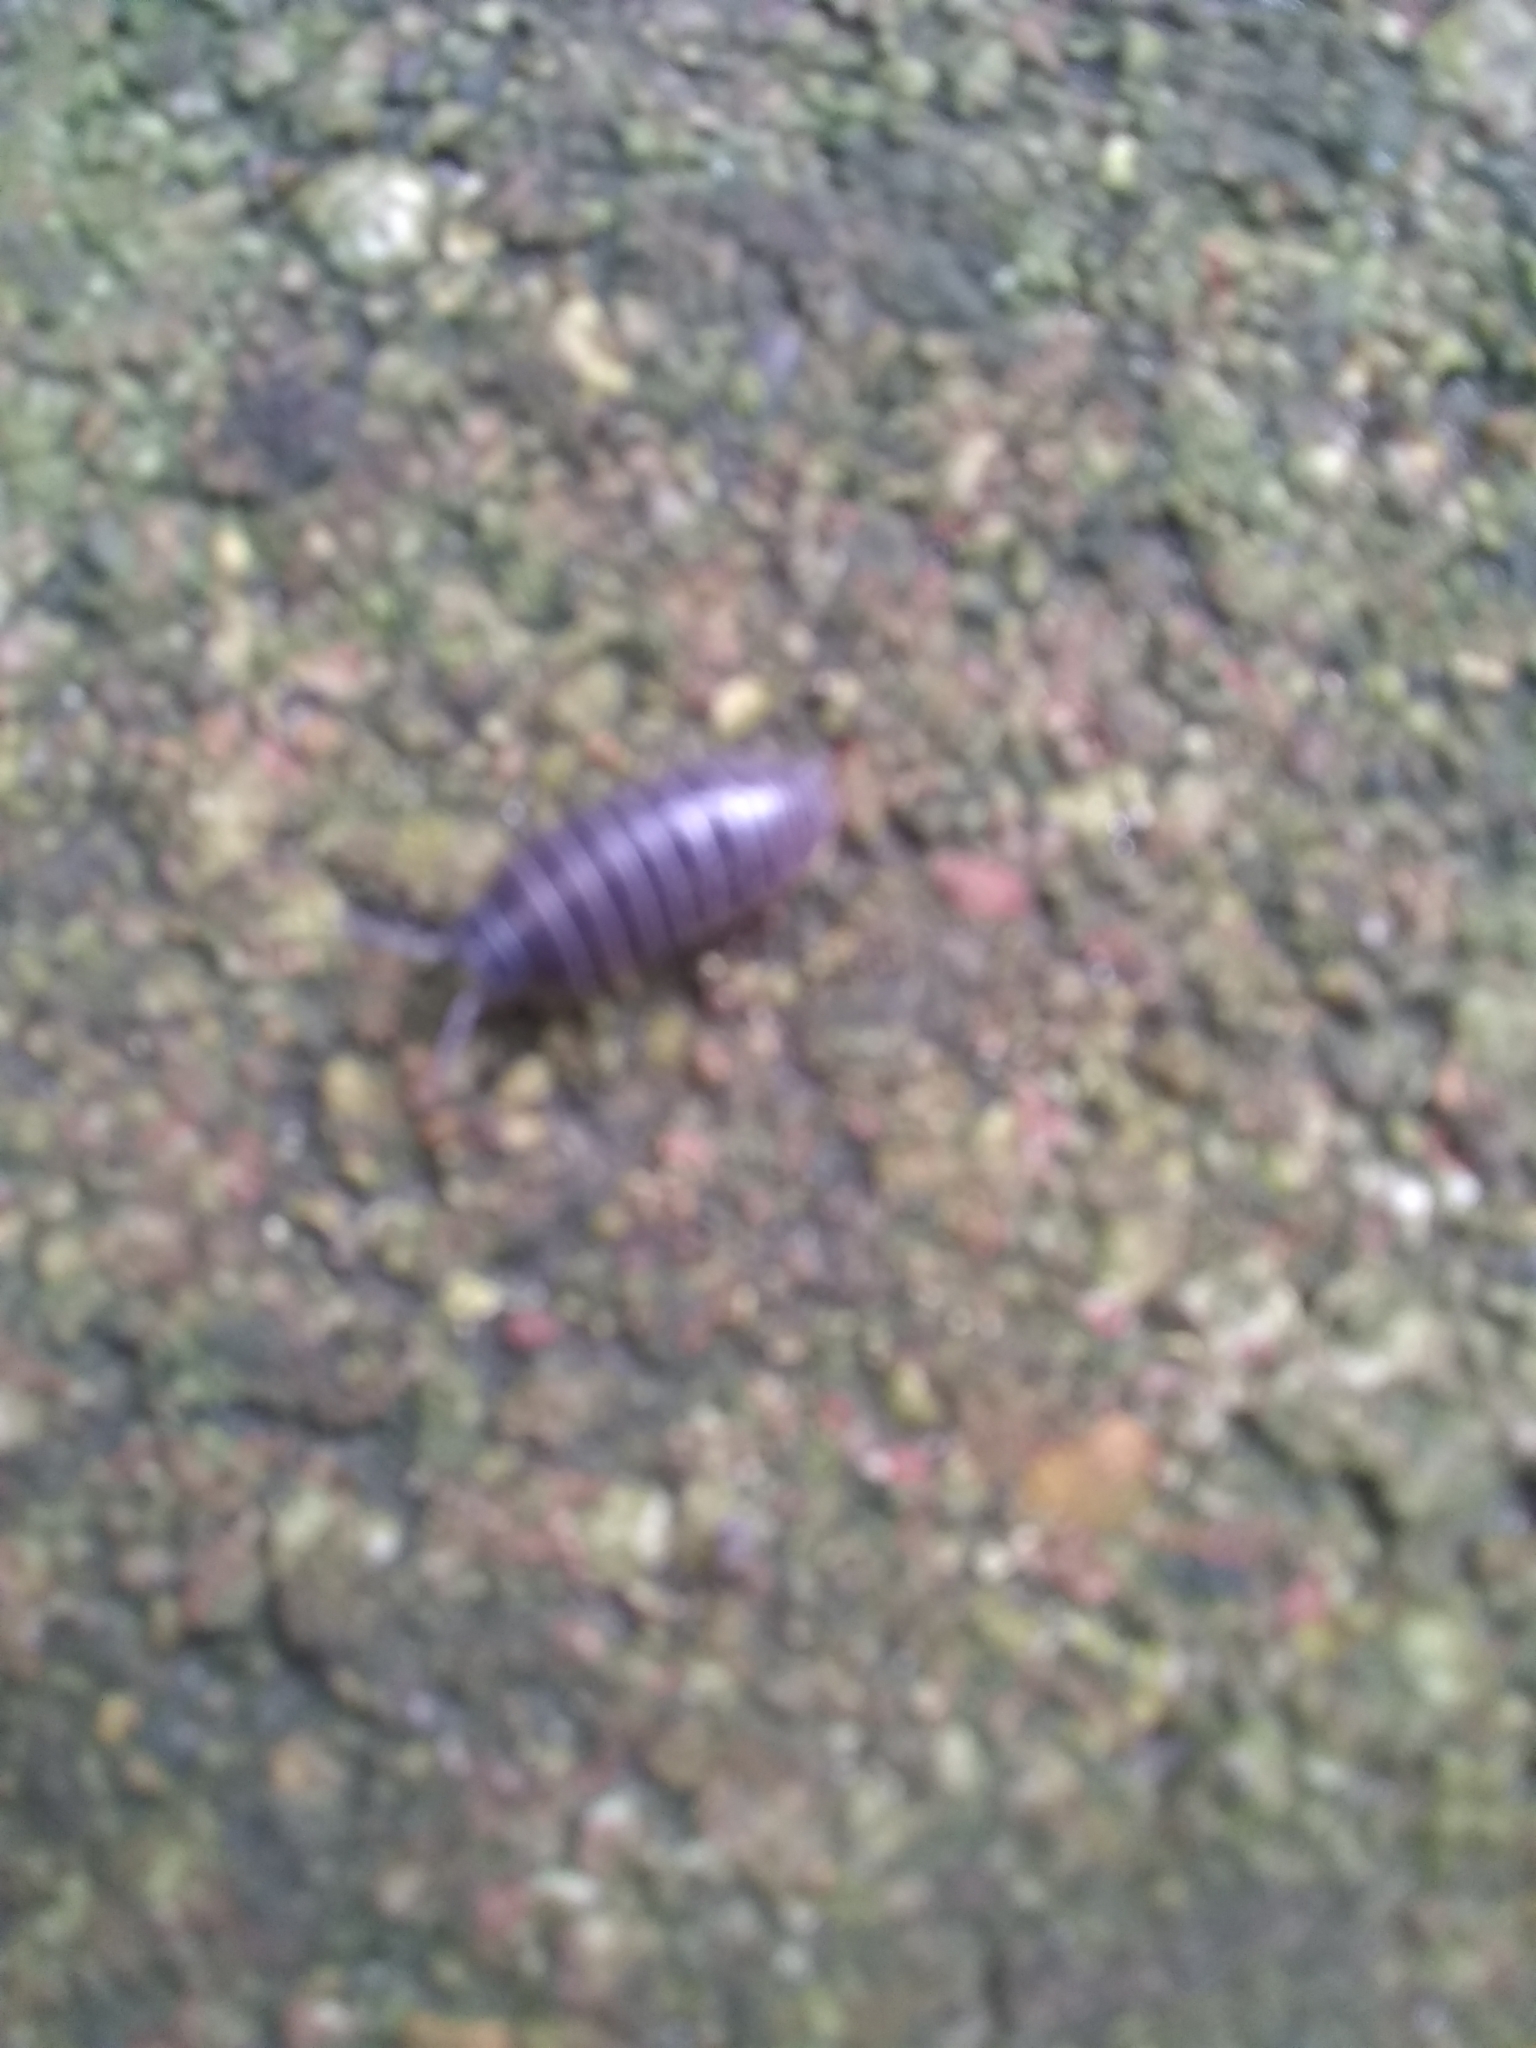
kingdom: Animalia
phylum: Arthropoda
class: Malacostraca
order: Isopoda
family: Armadillidiidae
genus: Armadillidium
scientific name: Armadillidium vulgare
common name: Common pill woodlouse
